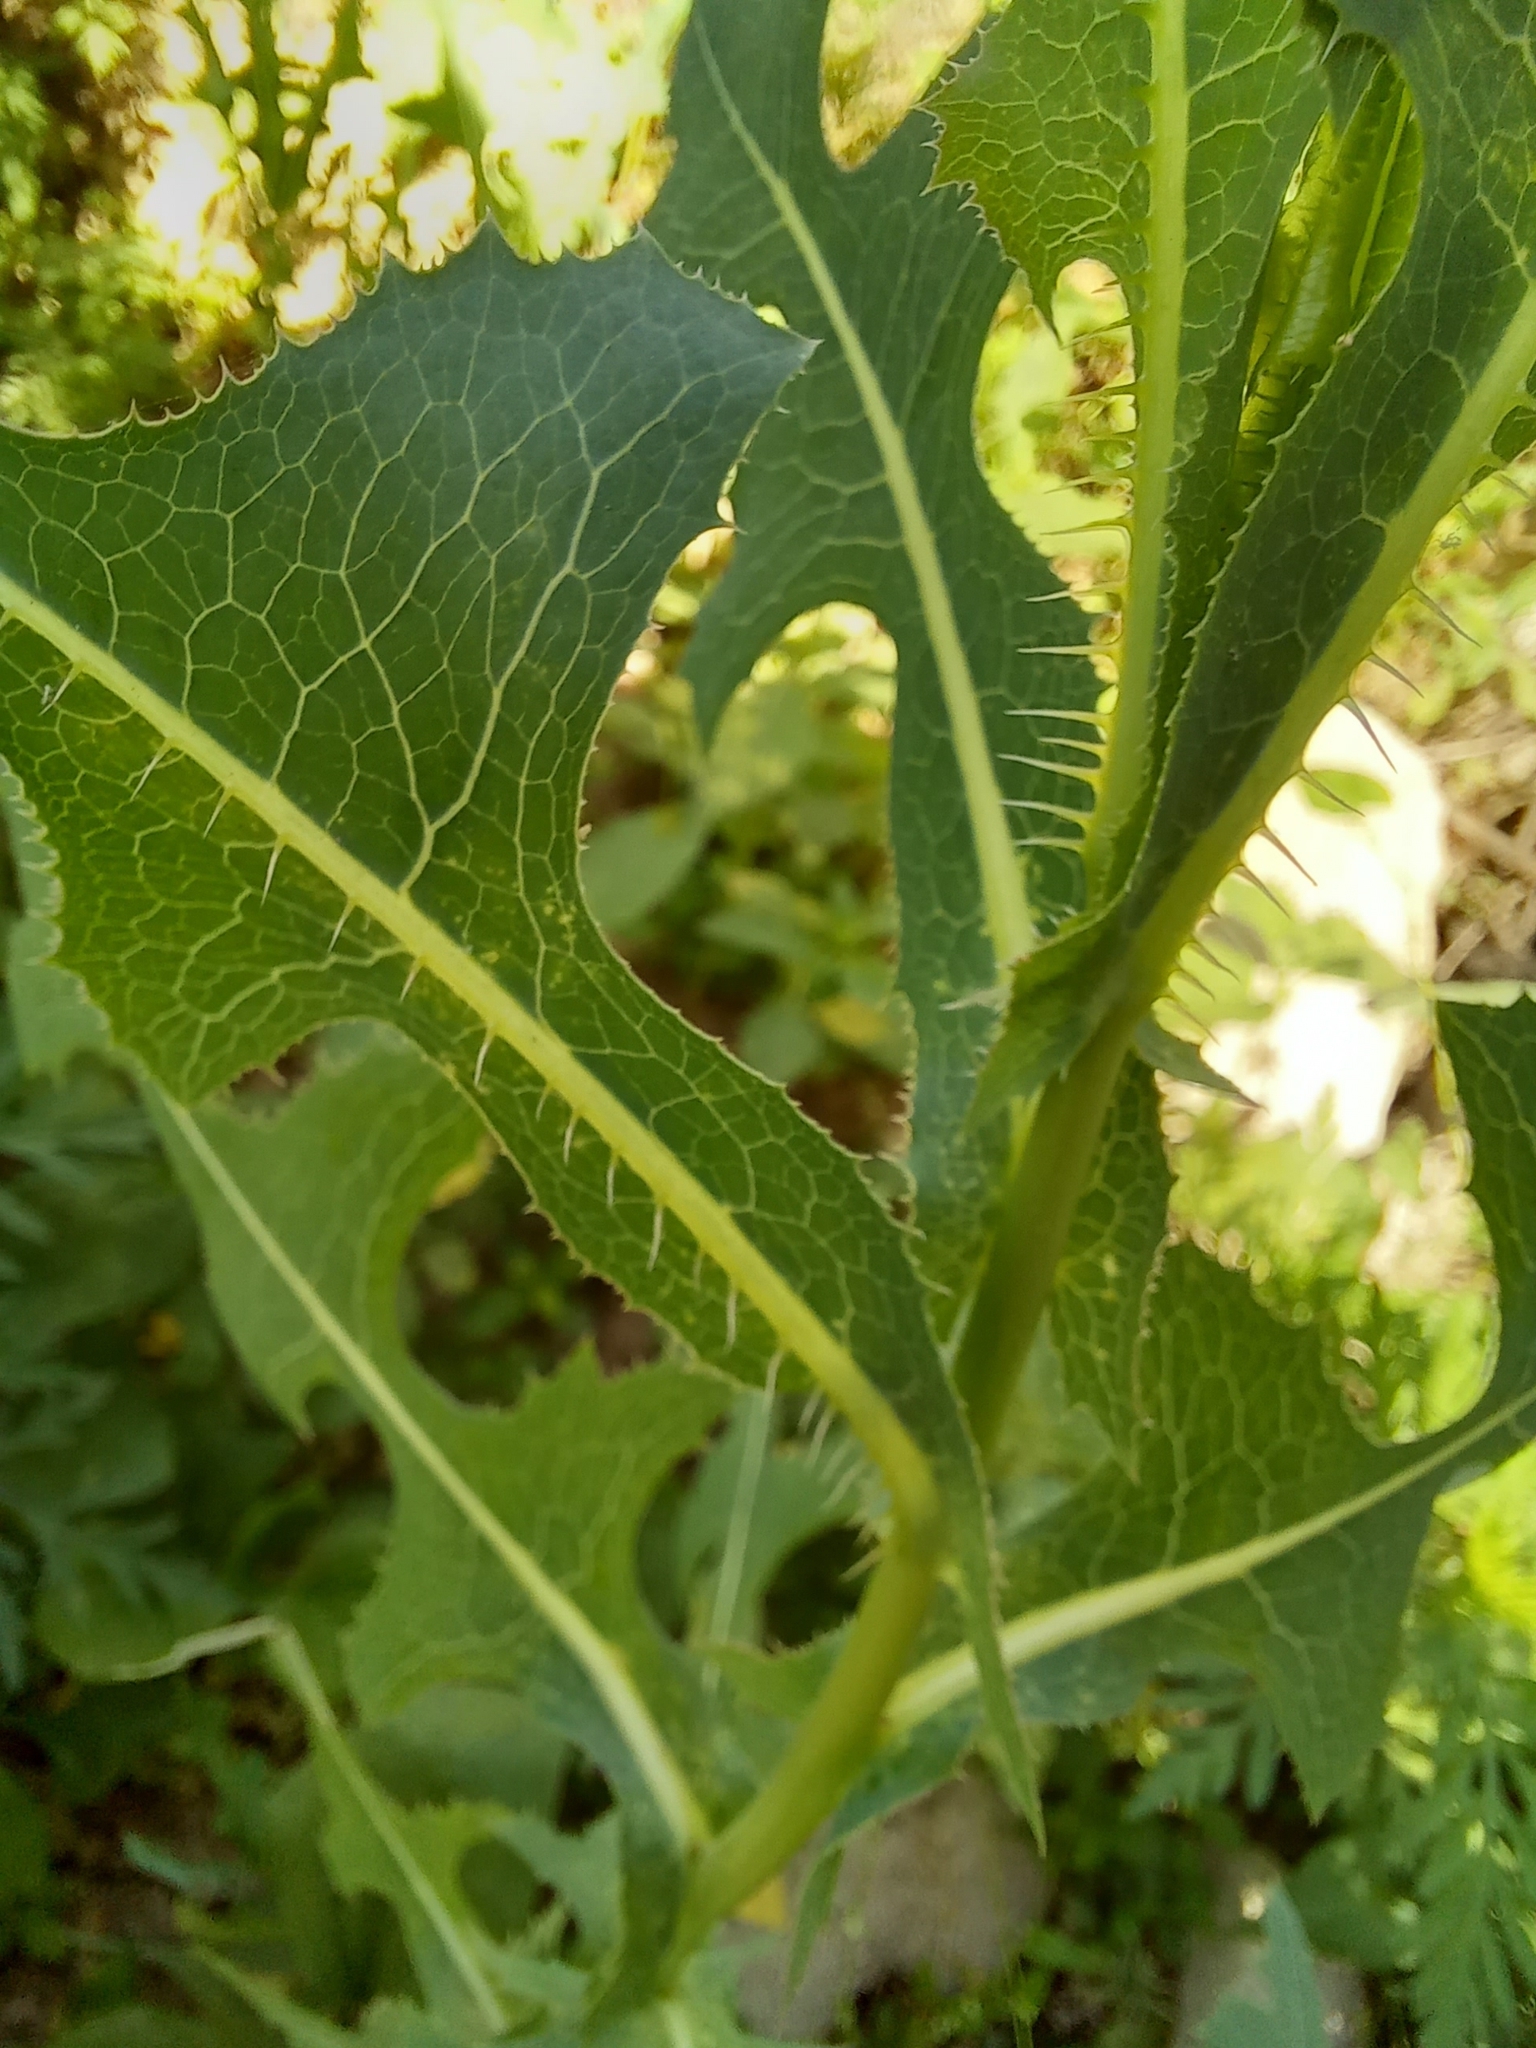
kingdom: Plantae
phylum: Tracheophyta
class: Magnoliopsida
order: Asterales
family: Asteraceae
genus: Lactuca
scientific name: Lactuca serriola
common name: Prickly lettuce
